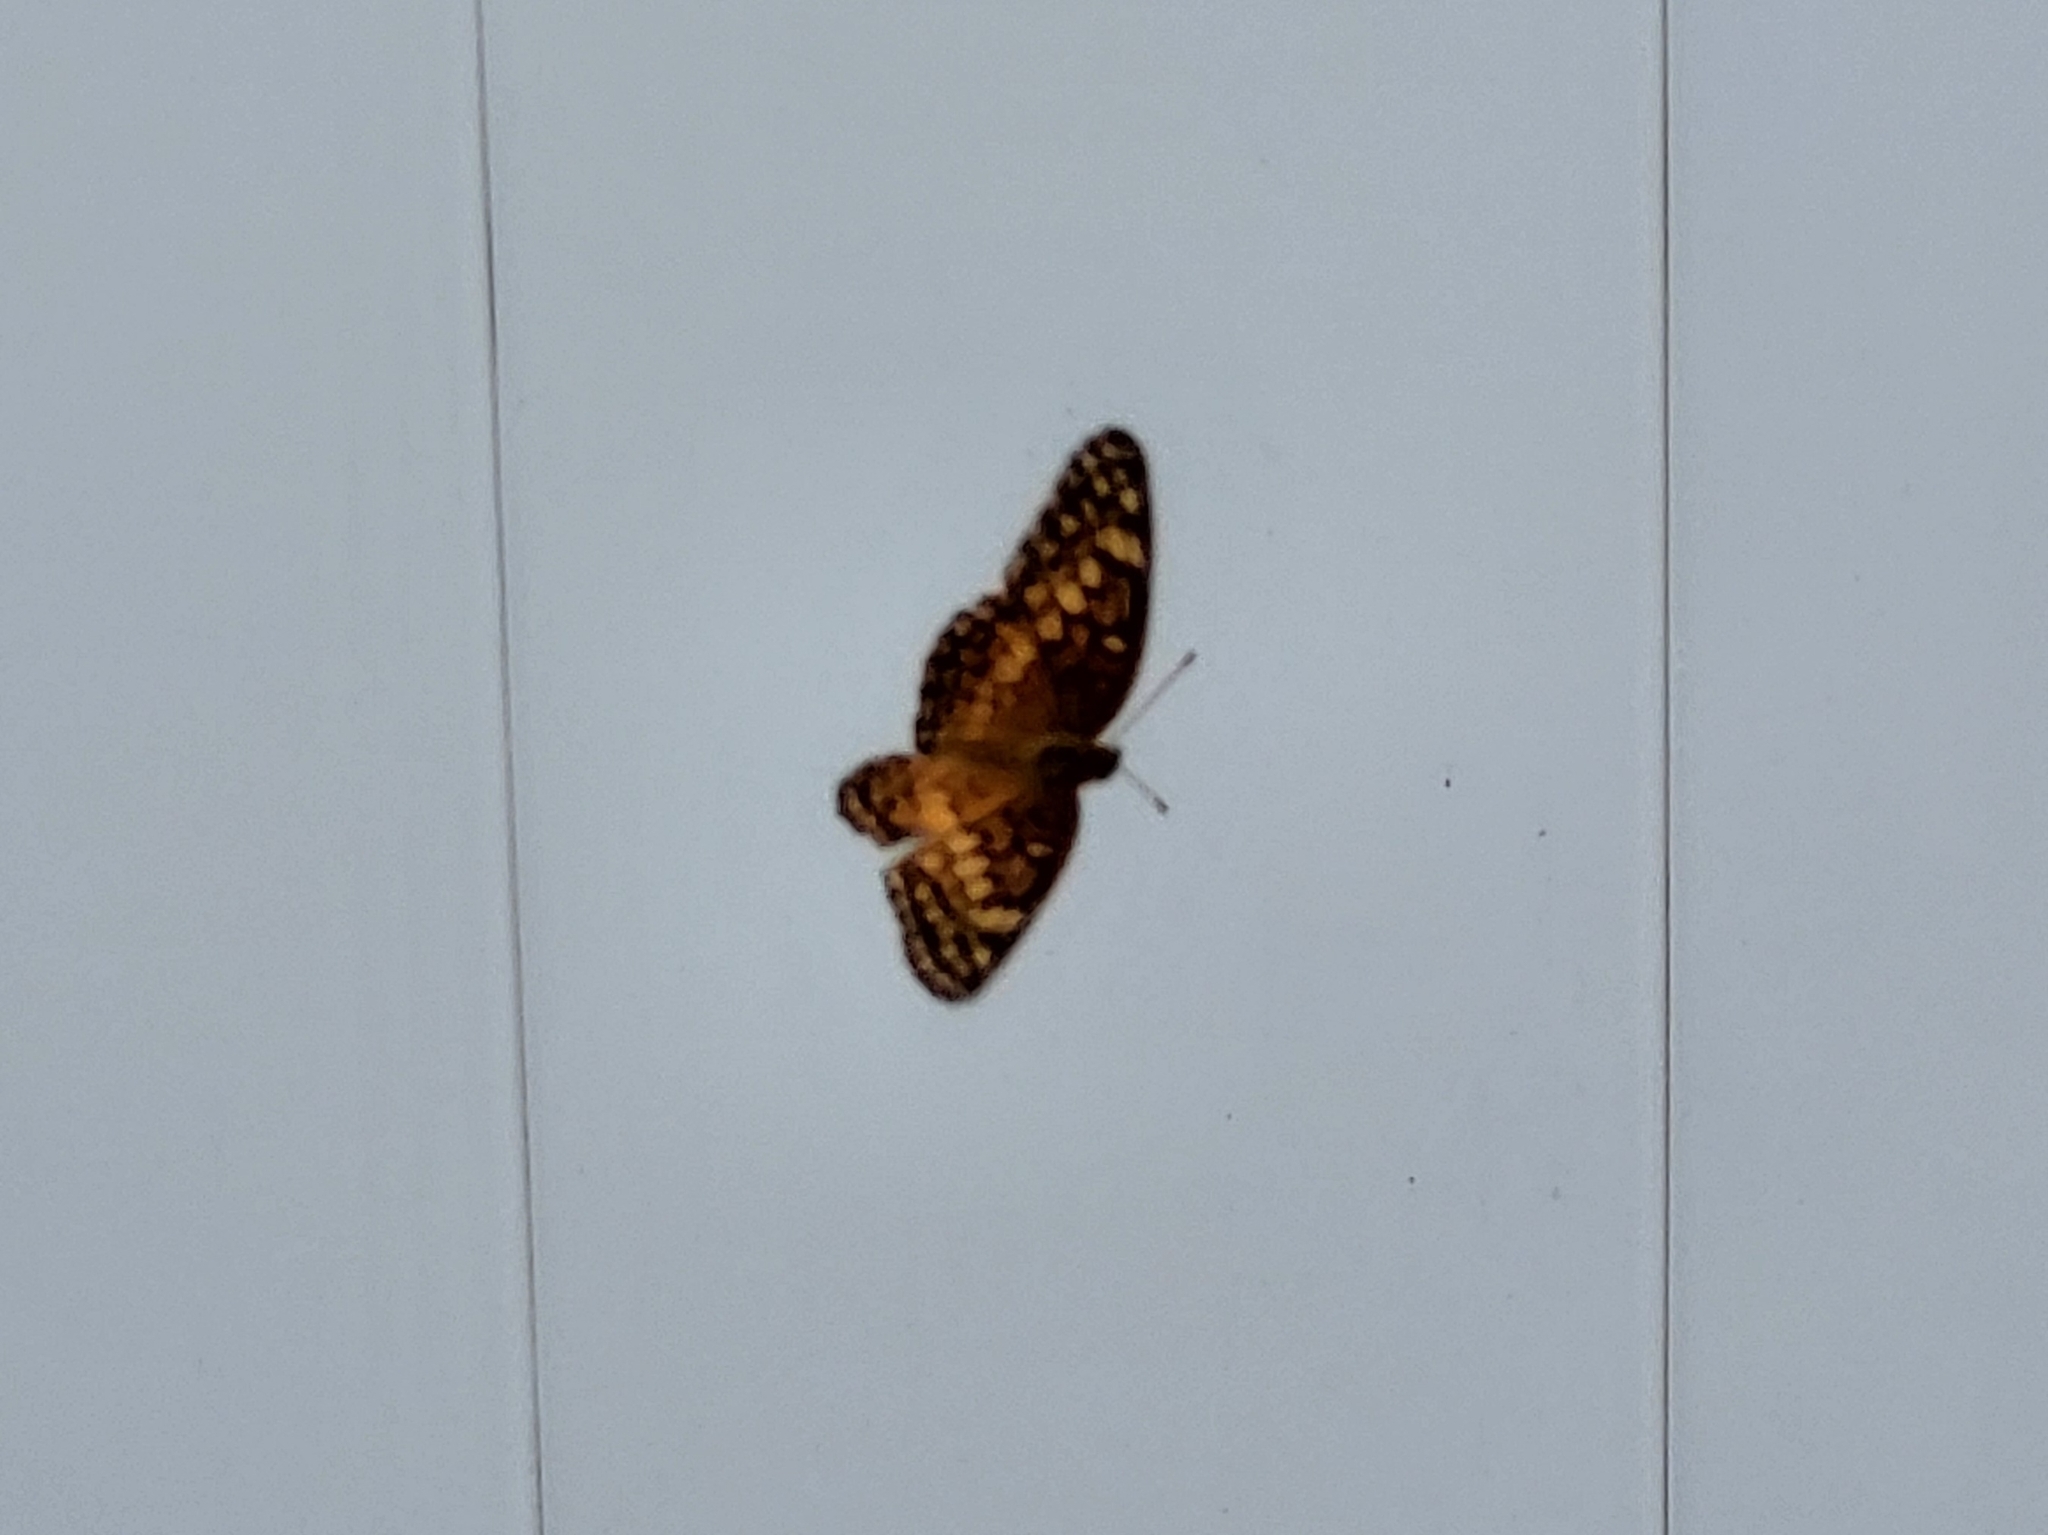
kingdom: Animalia
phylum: Arthropoda
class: Insecta
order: Lepidoptera
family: Nymphalidae
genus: Euptoieta
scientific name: Euptoieta claudia
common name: Variegated fritillary
